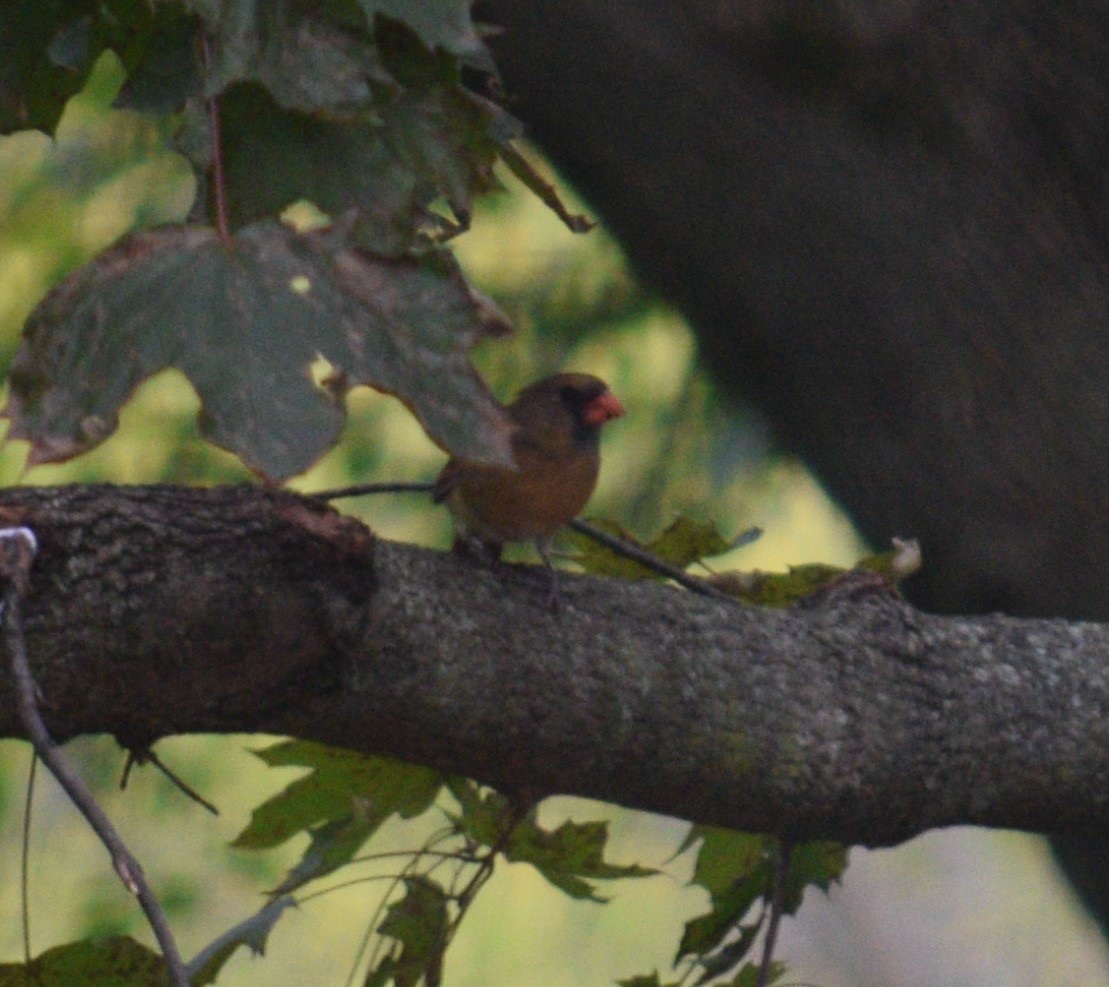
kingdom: Animalia
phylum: Chordata
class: Aves
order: Passeriformes
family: Cardinalidae
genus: Cardinalis
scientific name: Cardinalis cardinalis
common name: Northern cardinal
